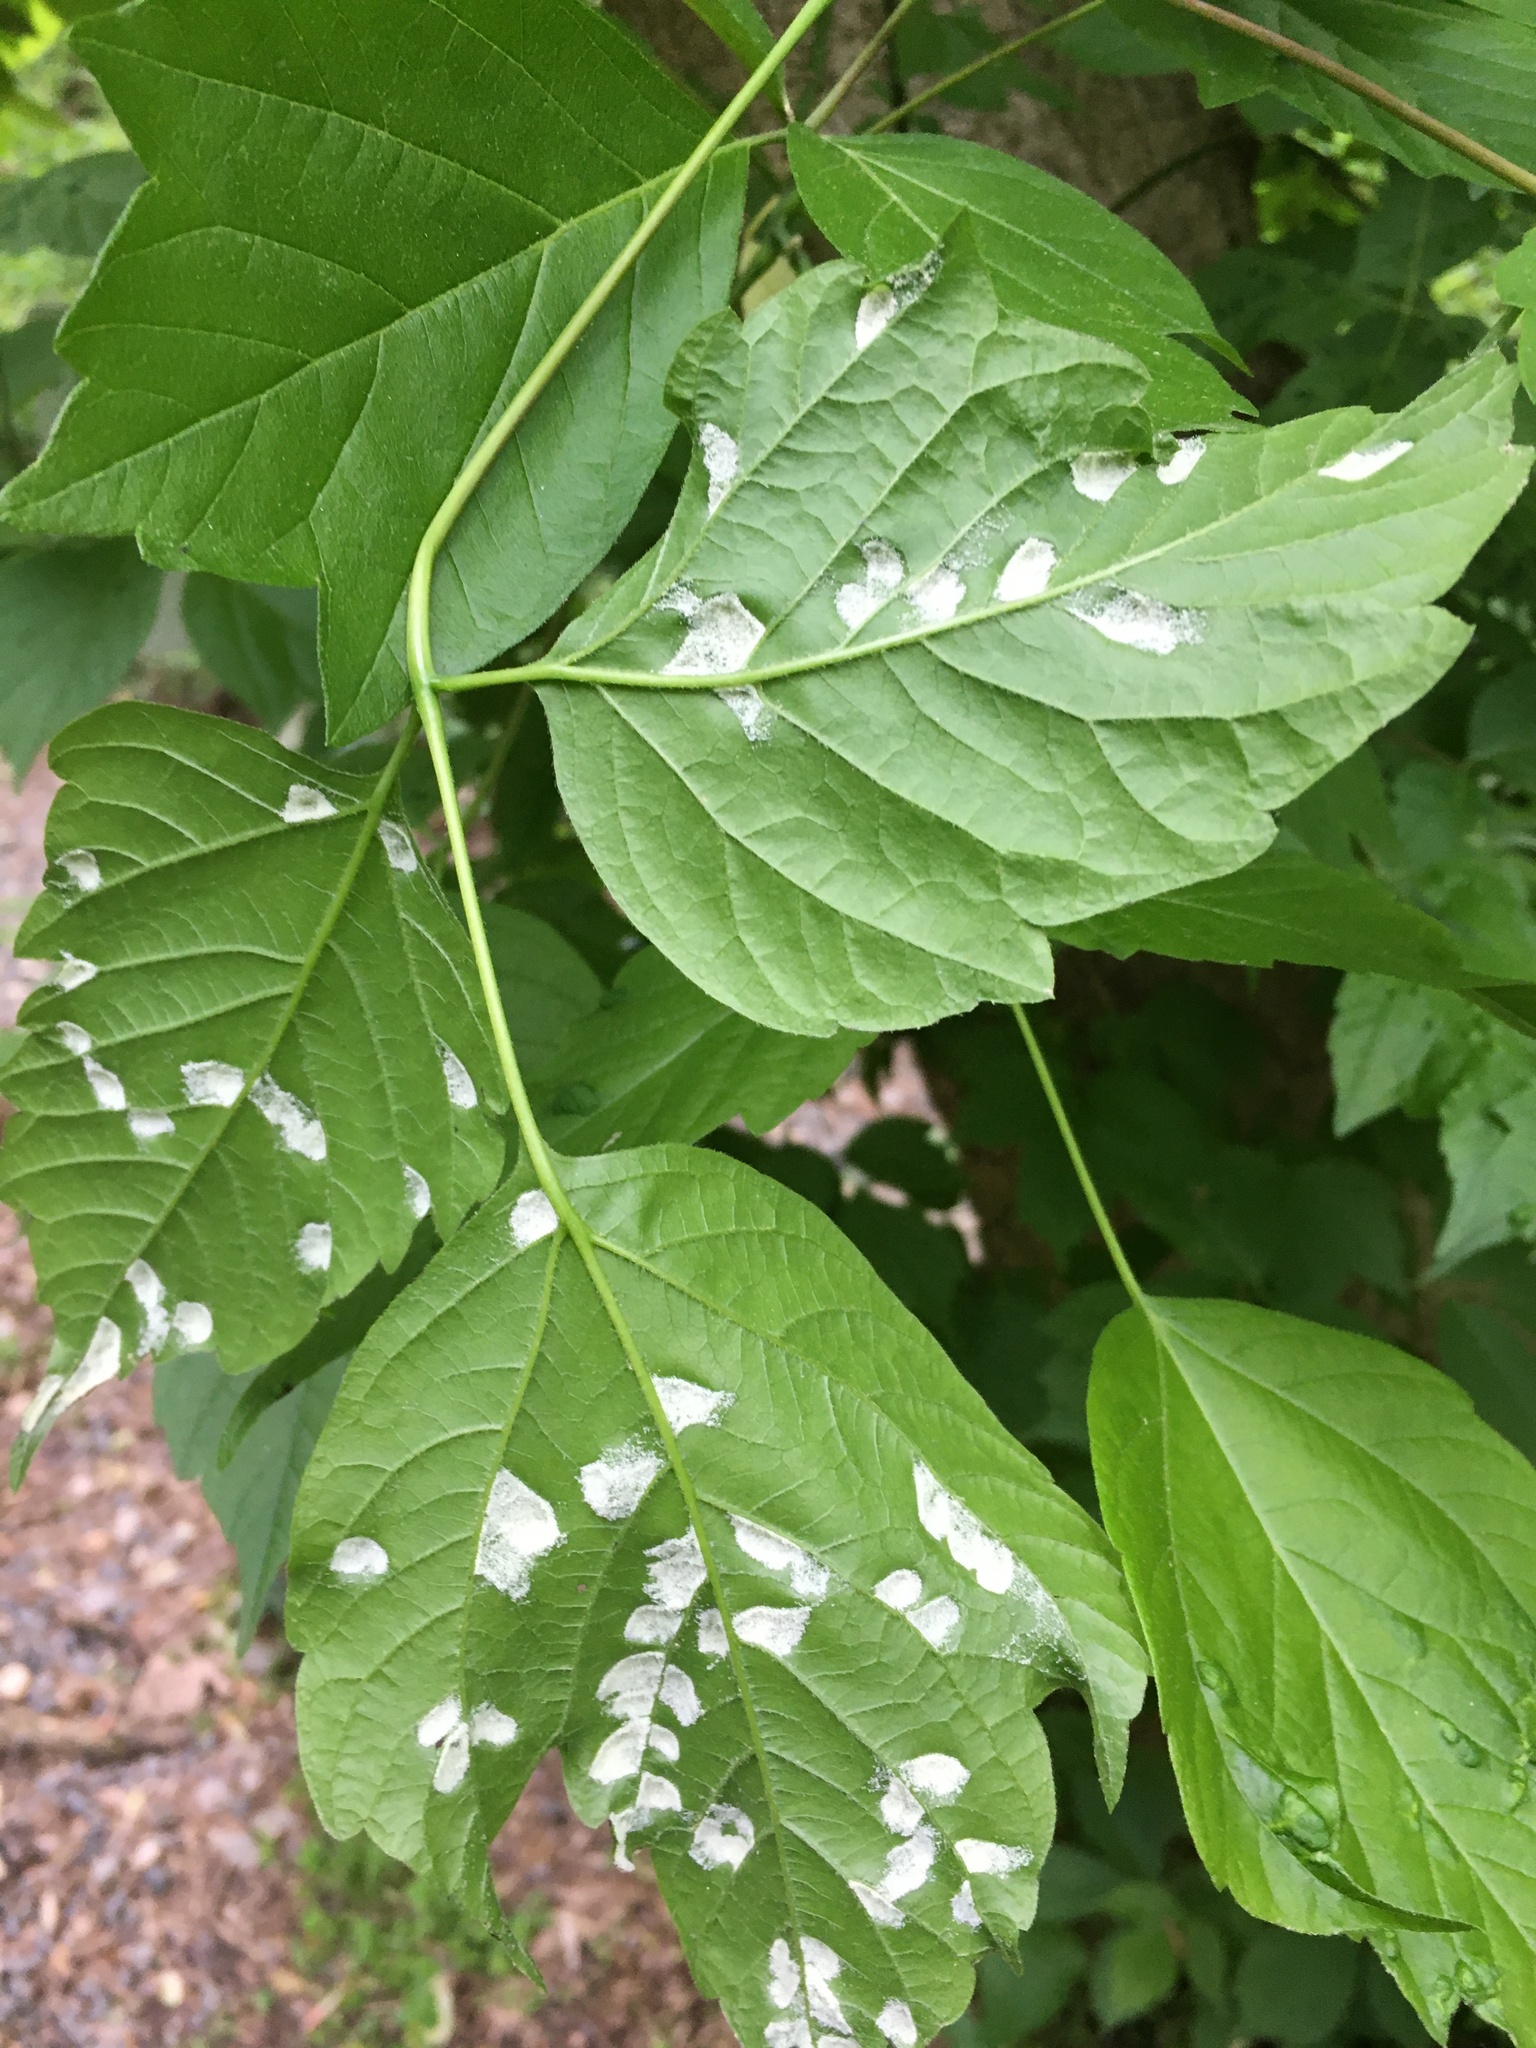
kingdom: Animalia
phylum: Arthropoda
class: Arachnida
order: Trombidiformes
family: Eriophyidae
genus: Aceria
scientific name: Aceria
